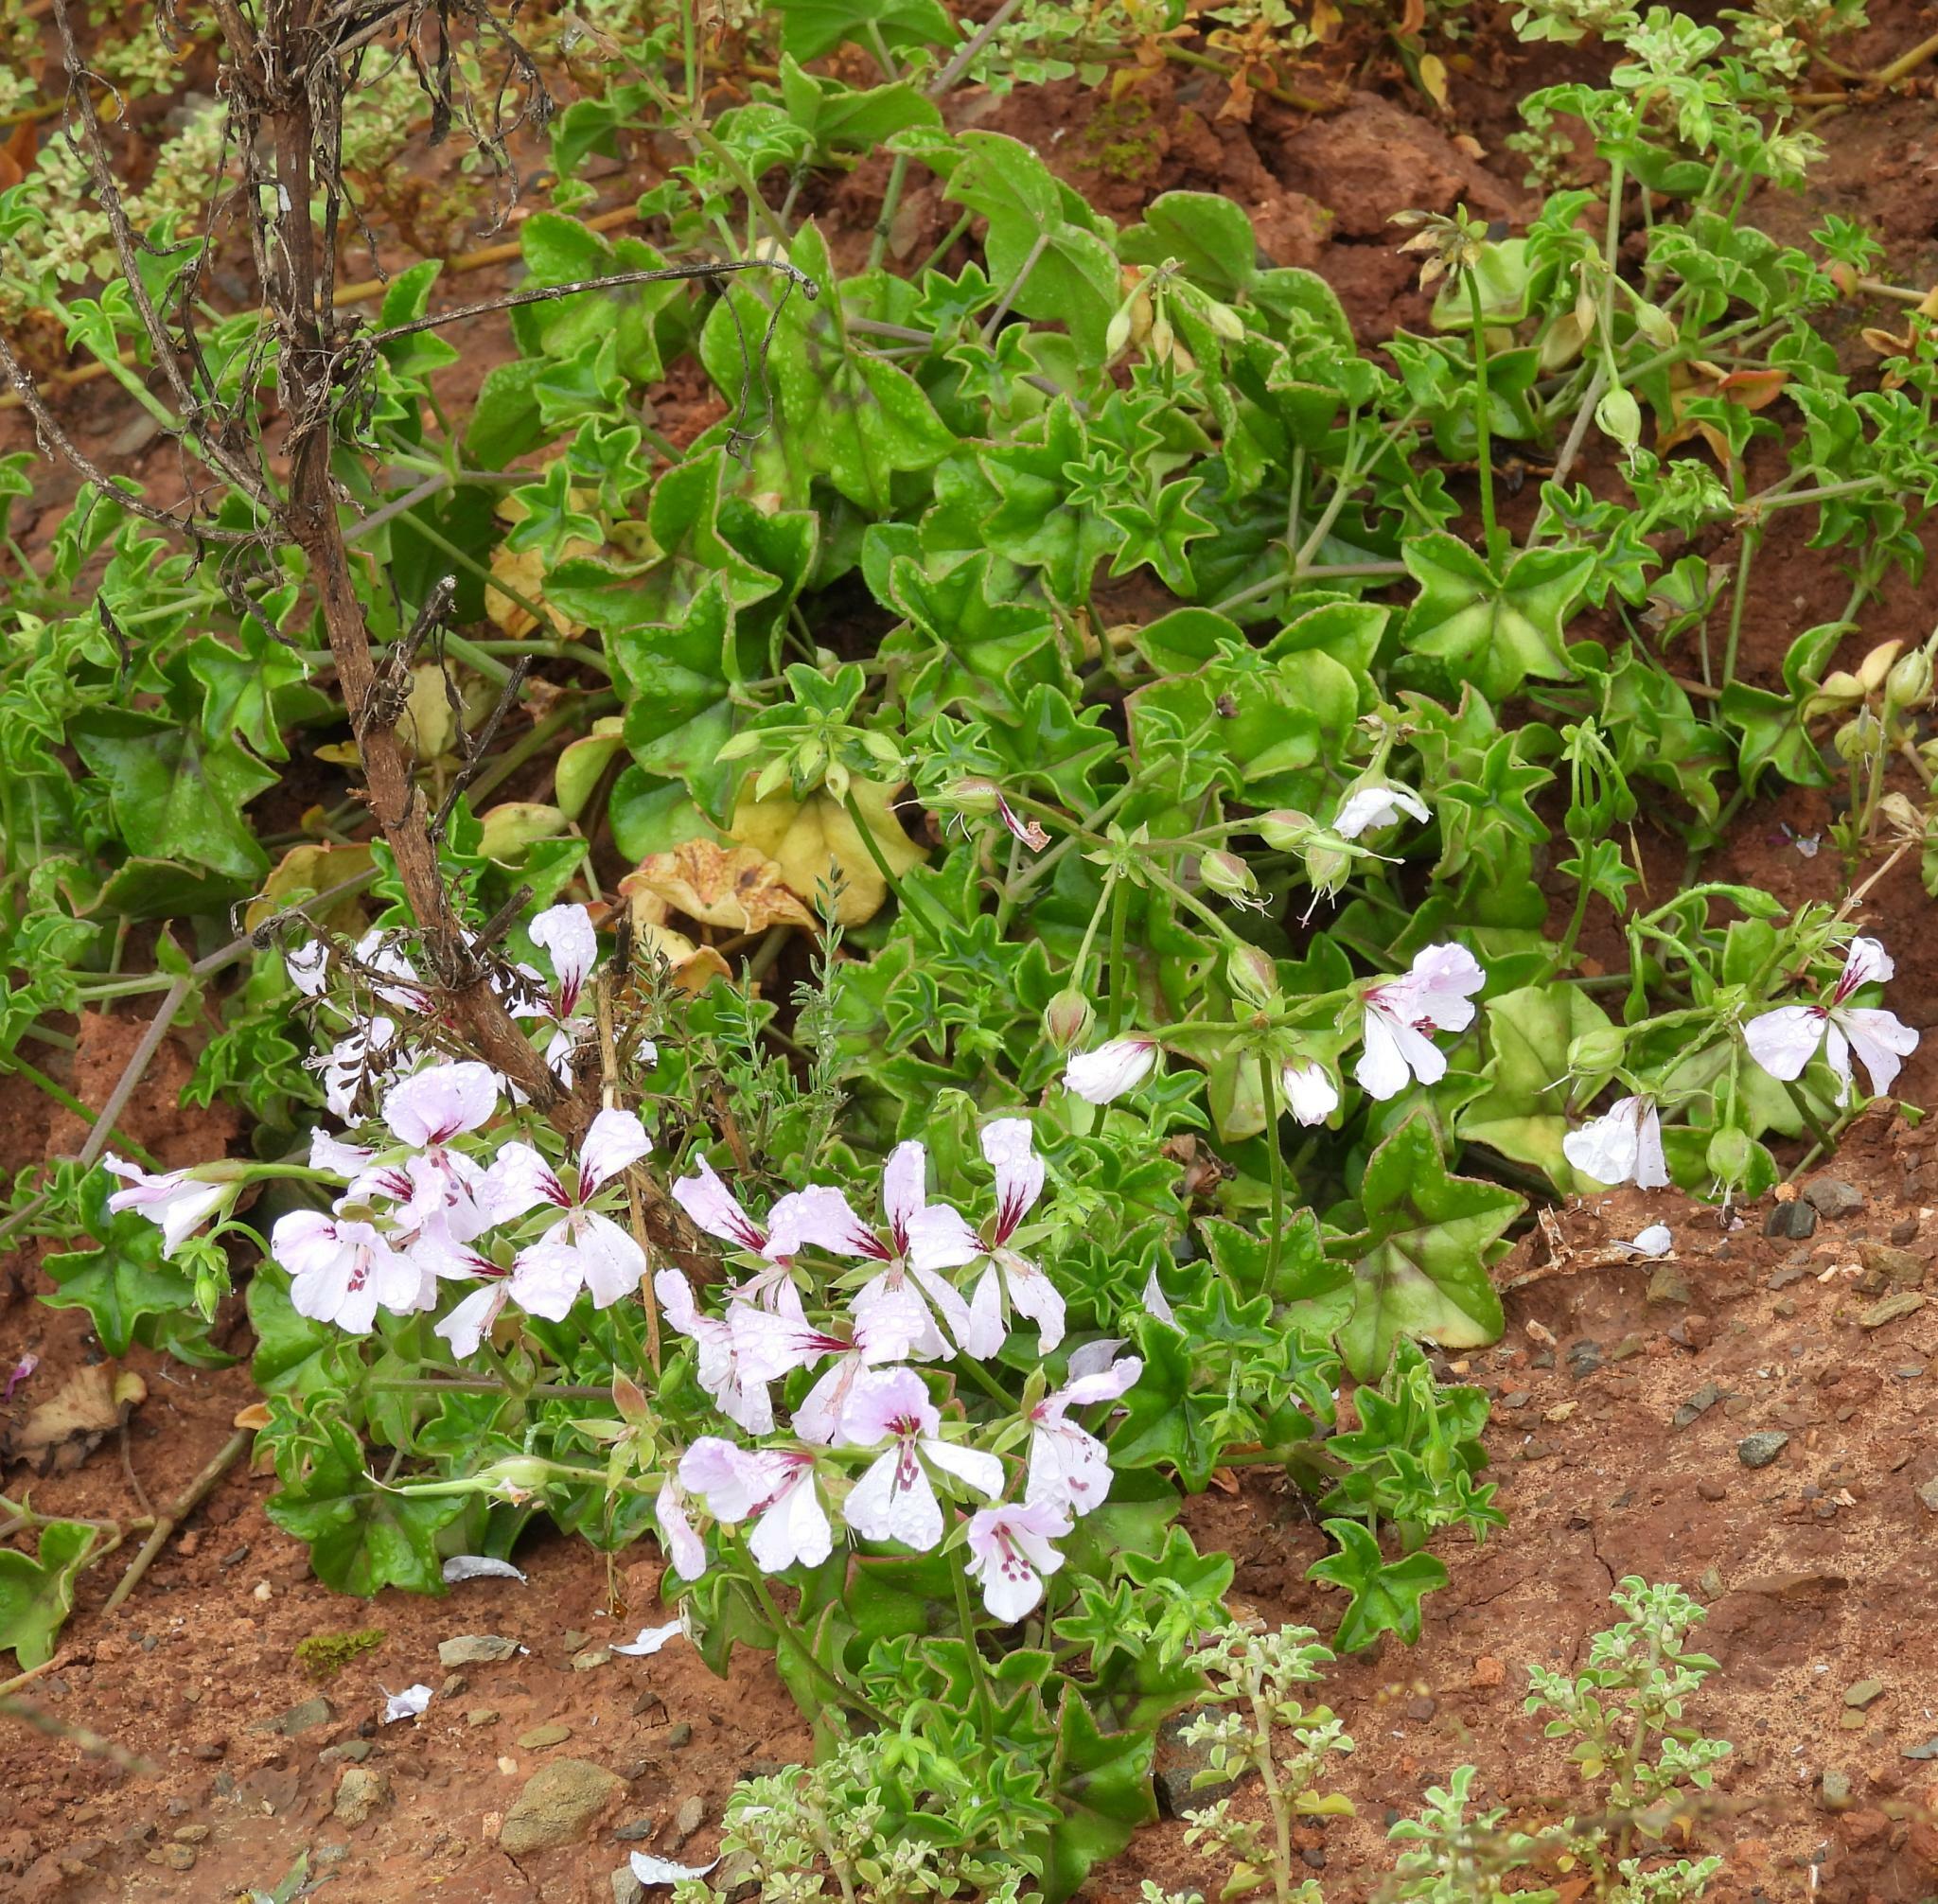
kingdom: Plantae
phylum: Tracheophyta
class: Magnoliopsida
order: Geraniales
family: Geraniaceae
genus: Pelargonium
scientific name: Pelargonium peltatum
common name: Ivyleaf geranium
